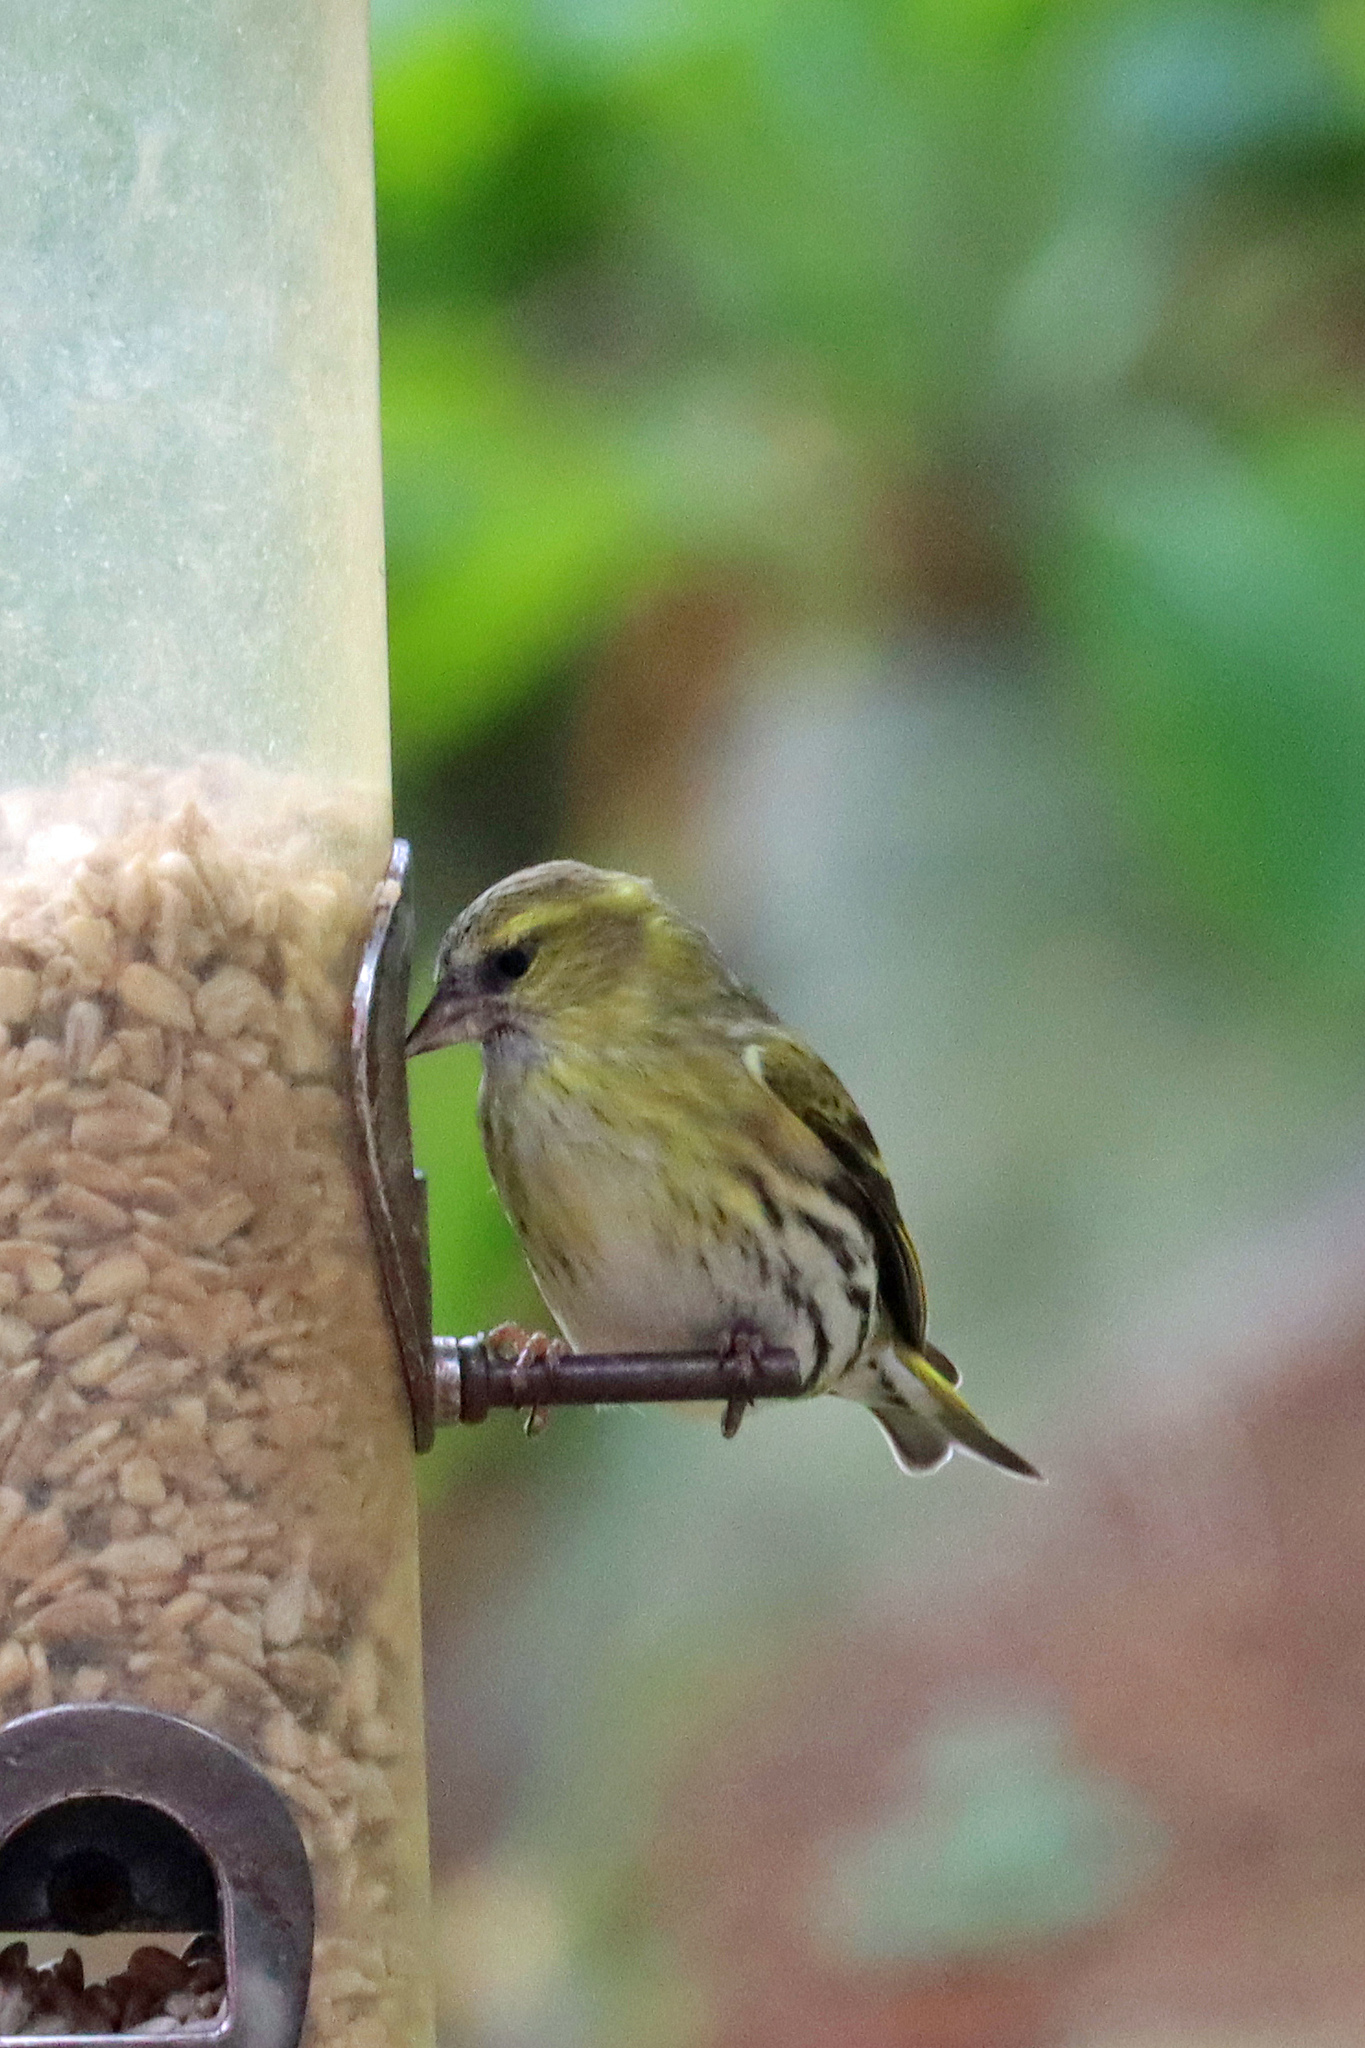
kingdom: Animalia
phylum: Chordata
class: Aves
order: Passeriformes
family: Fringillidae
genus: Spinus
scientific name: Spinus spinus
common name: Eurasian siskin
